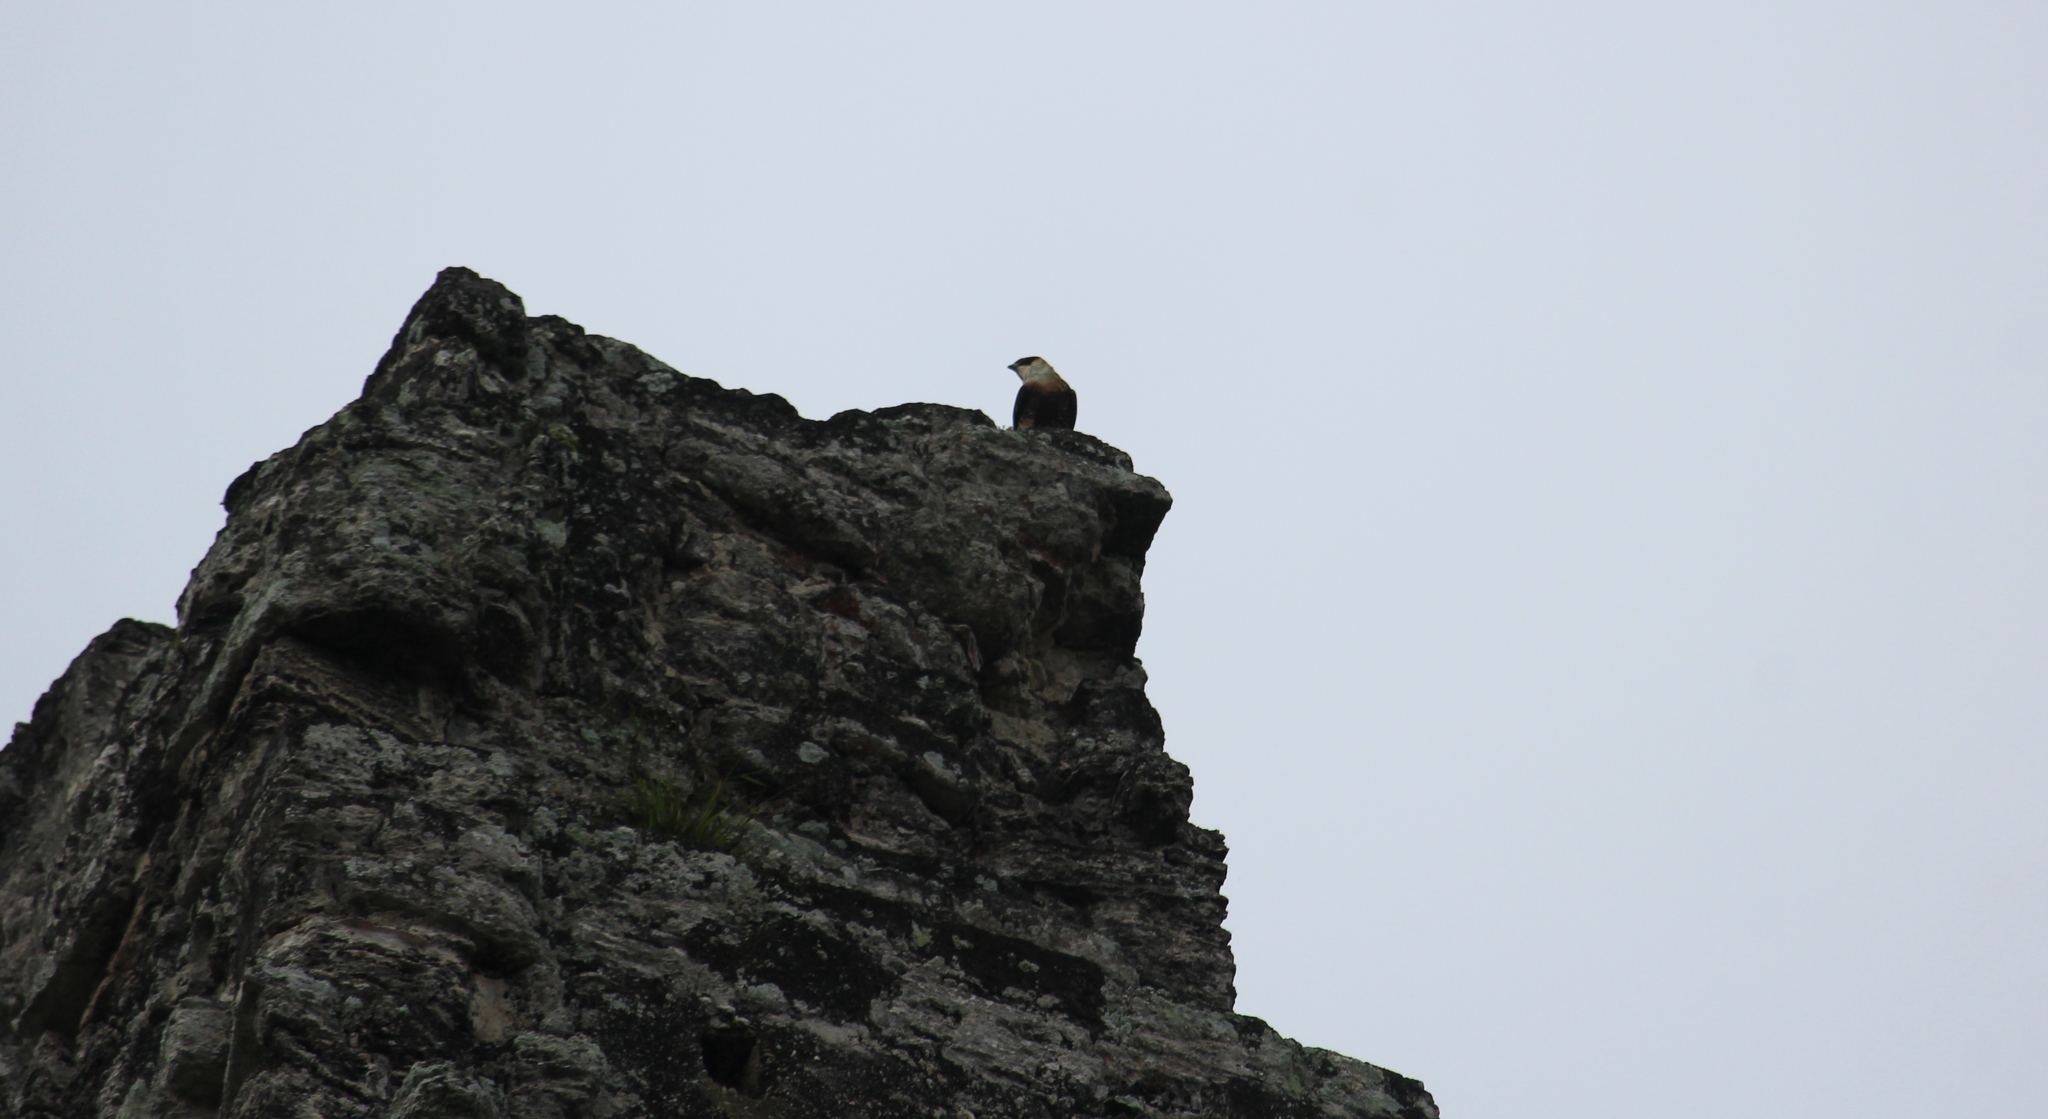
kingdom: Animalia
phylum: Chordata
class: Aves
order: Falconiformes
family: Falconidae
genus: Falco
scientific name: Falco deiroleucus
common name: Orange-breasted falcon
